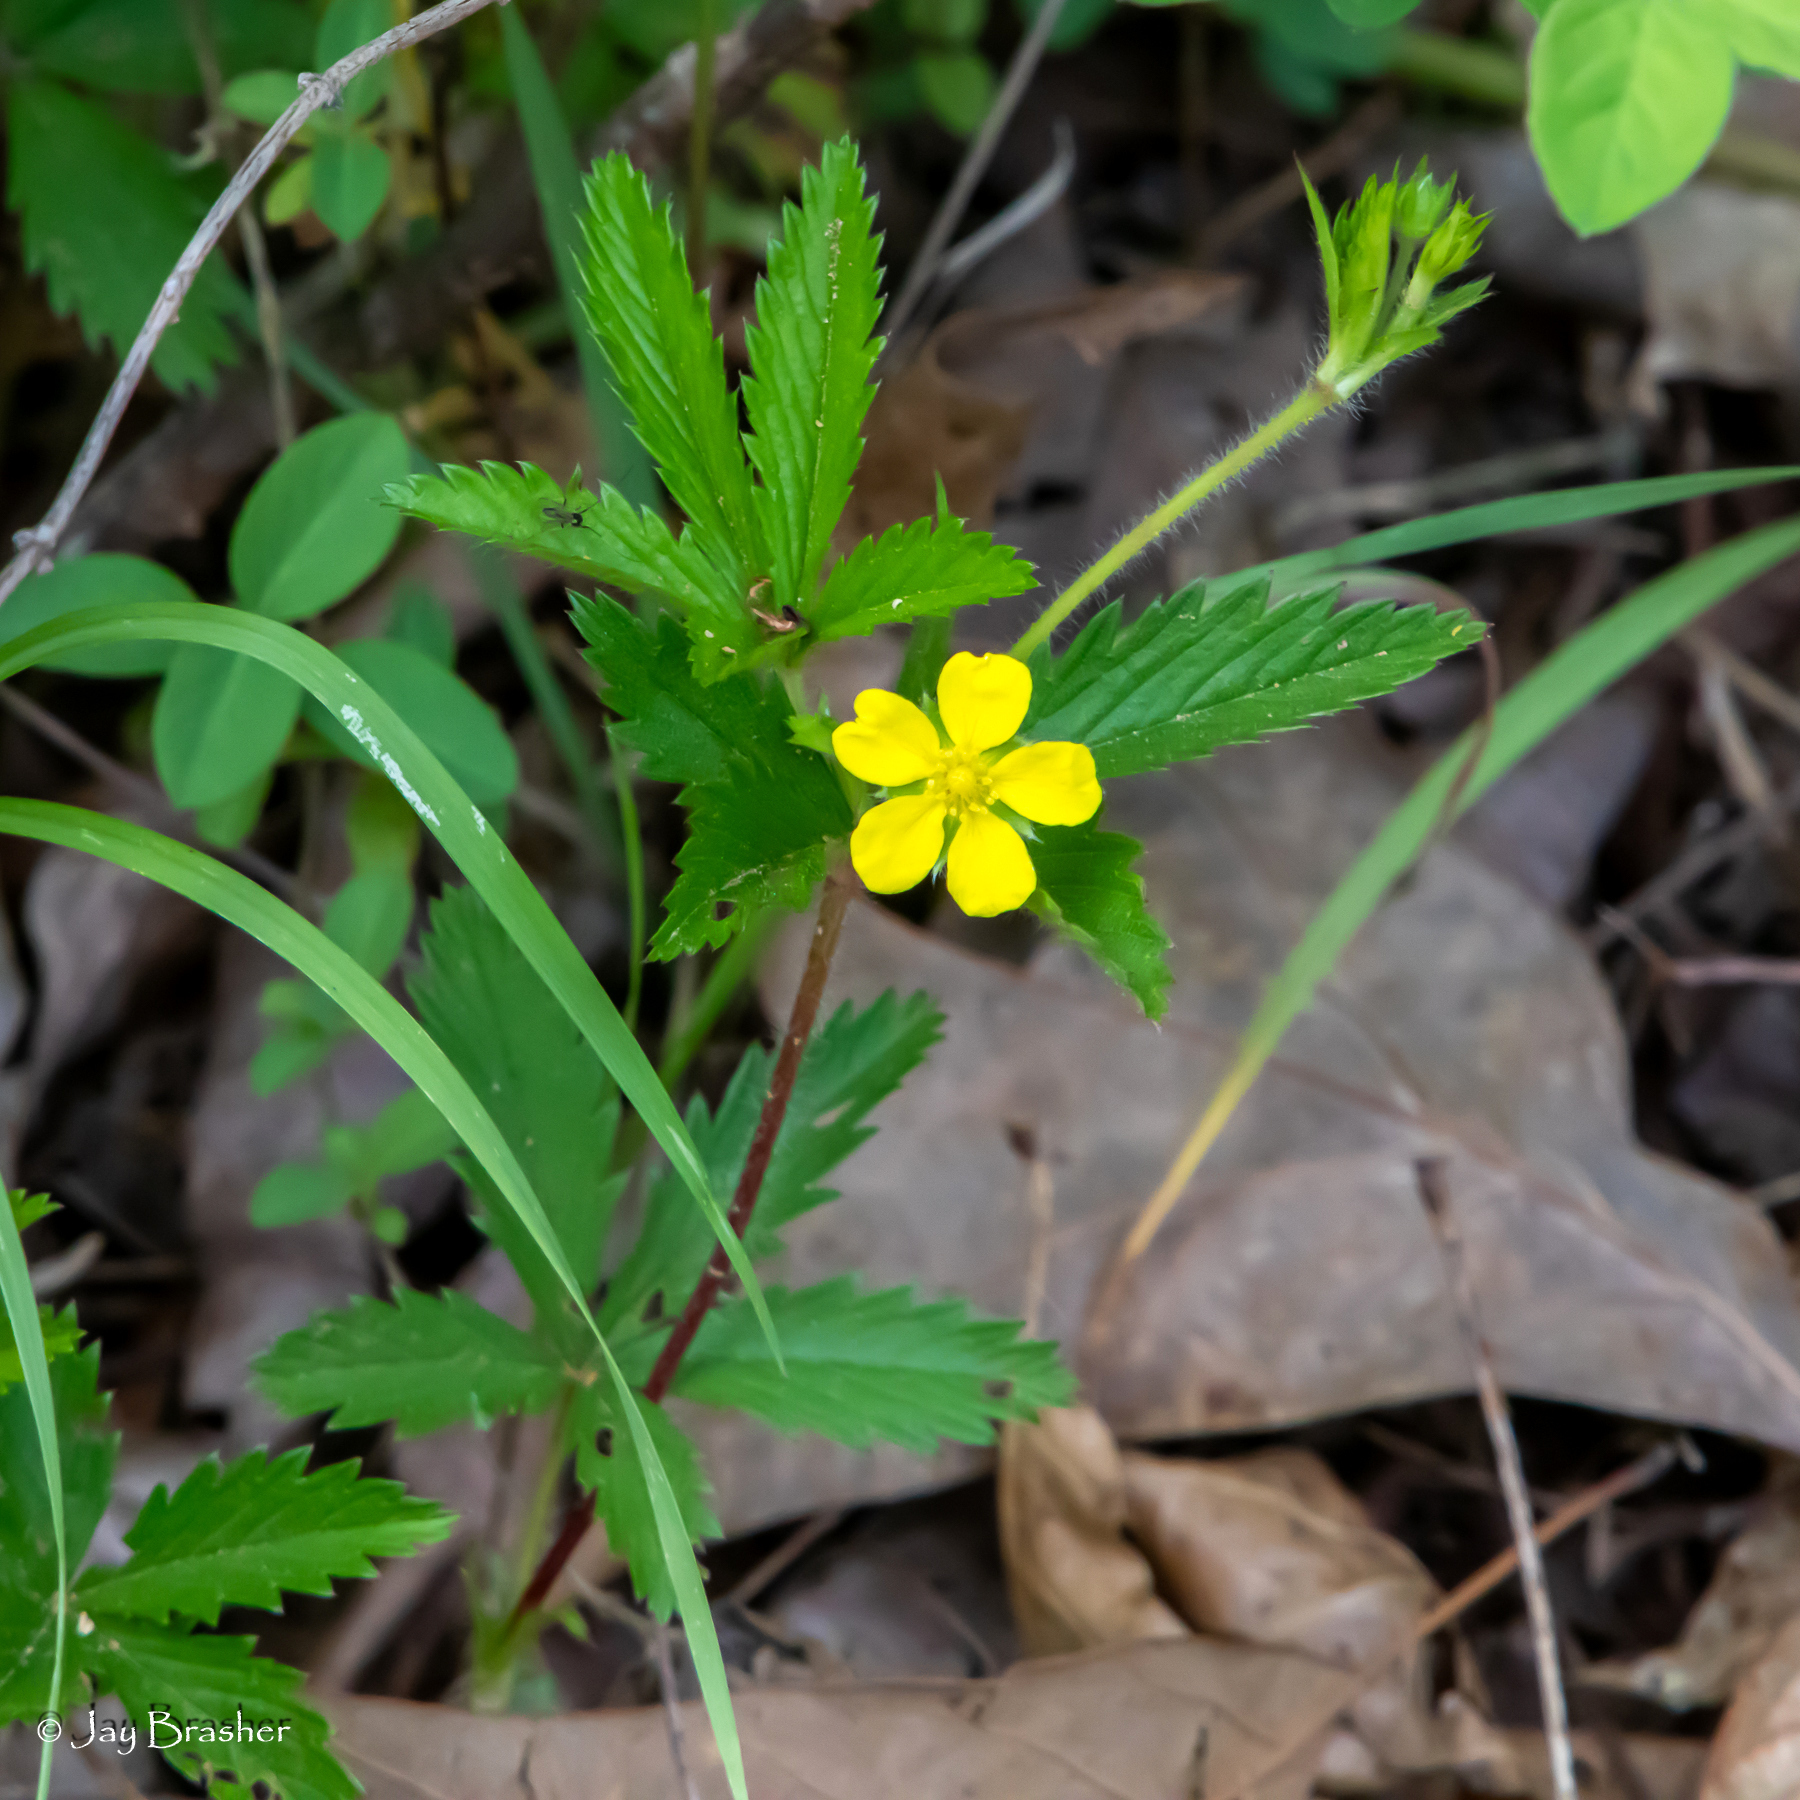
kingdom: Plantae
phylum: Tracheophyta
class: Magnoliopsida
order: Rosales
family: Rosaceae
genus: Potentilla
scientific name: Potentilla simplex
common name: Old field cinquefoil
